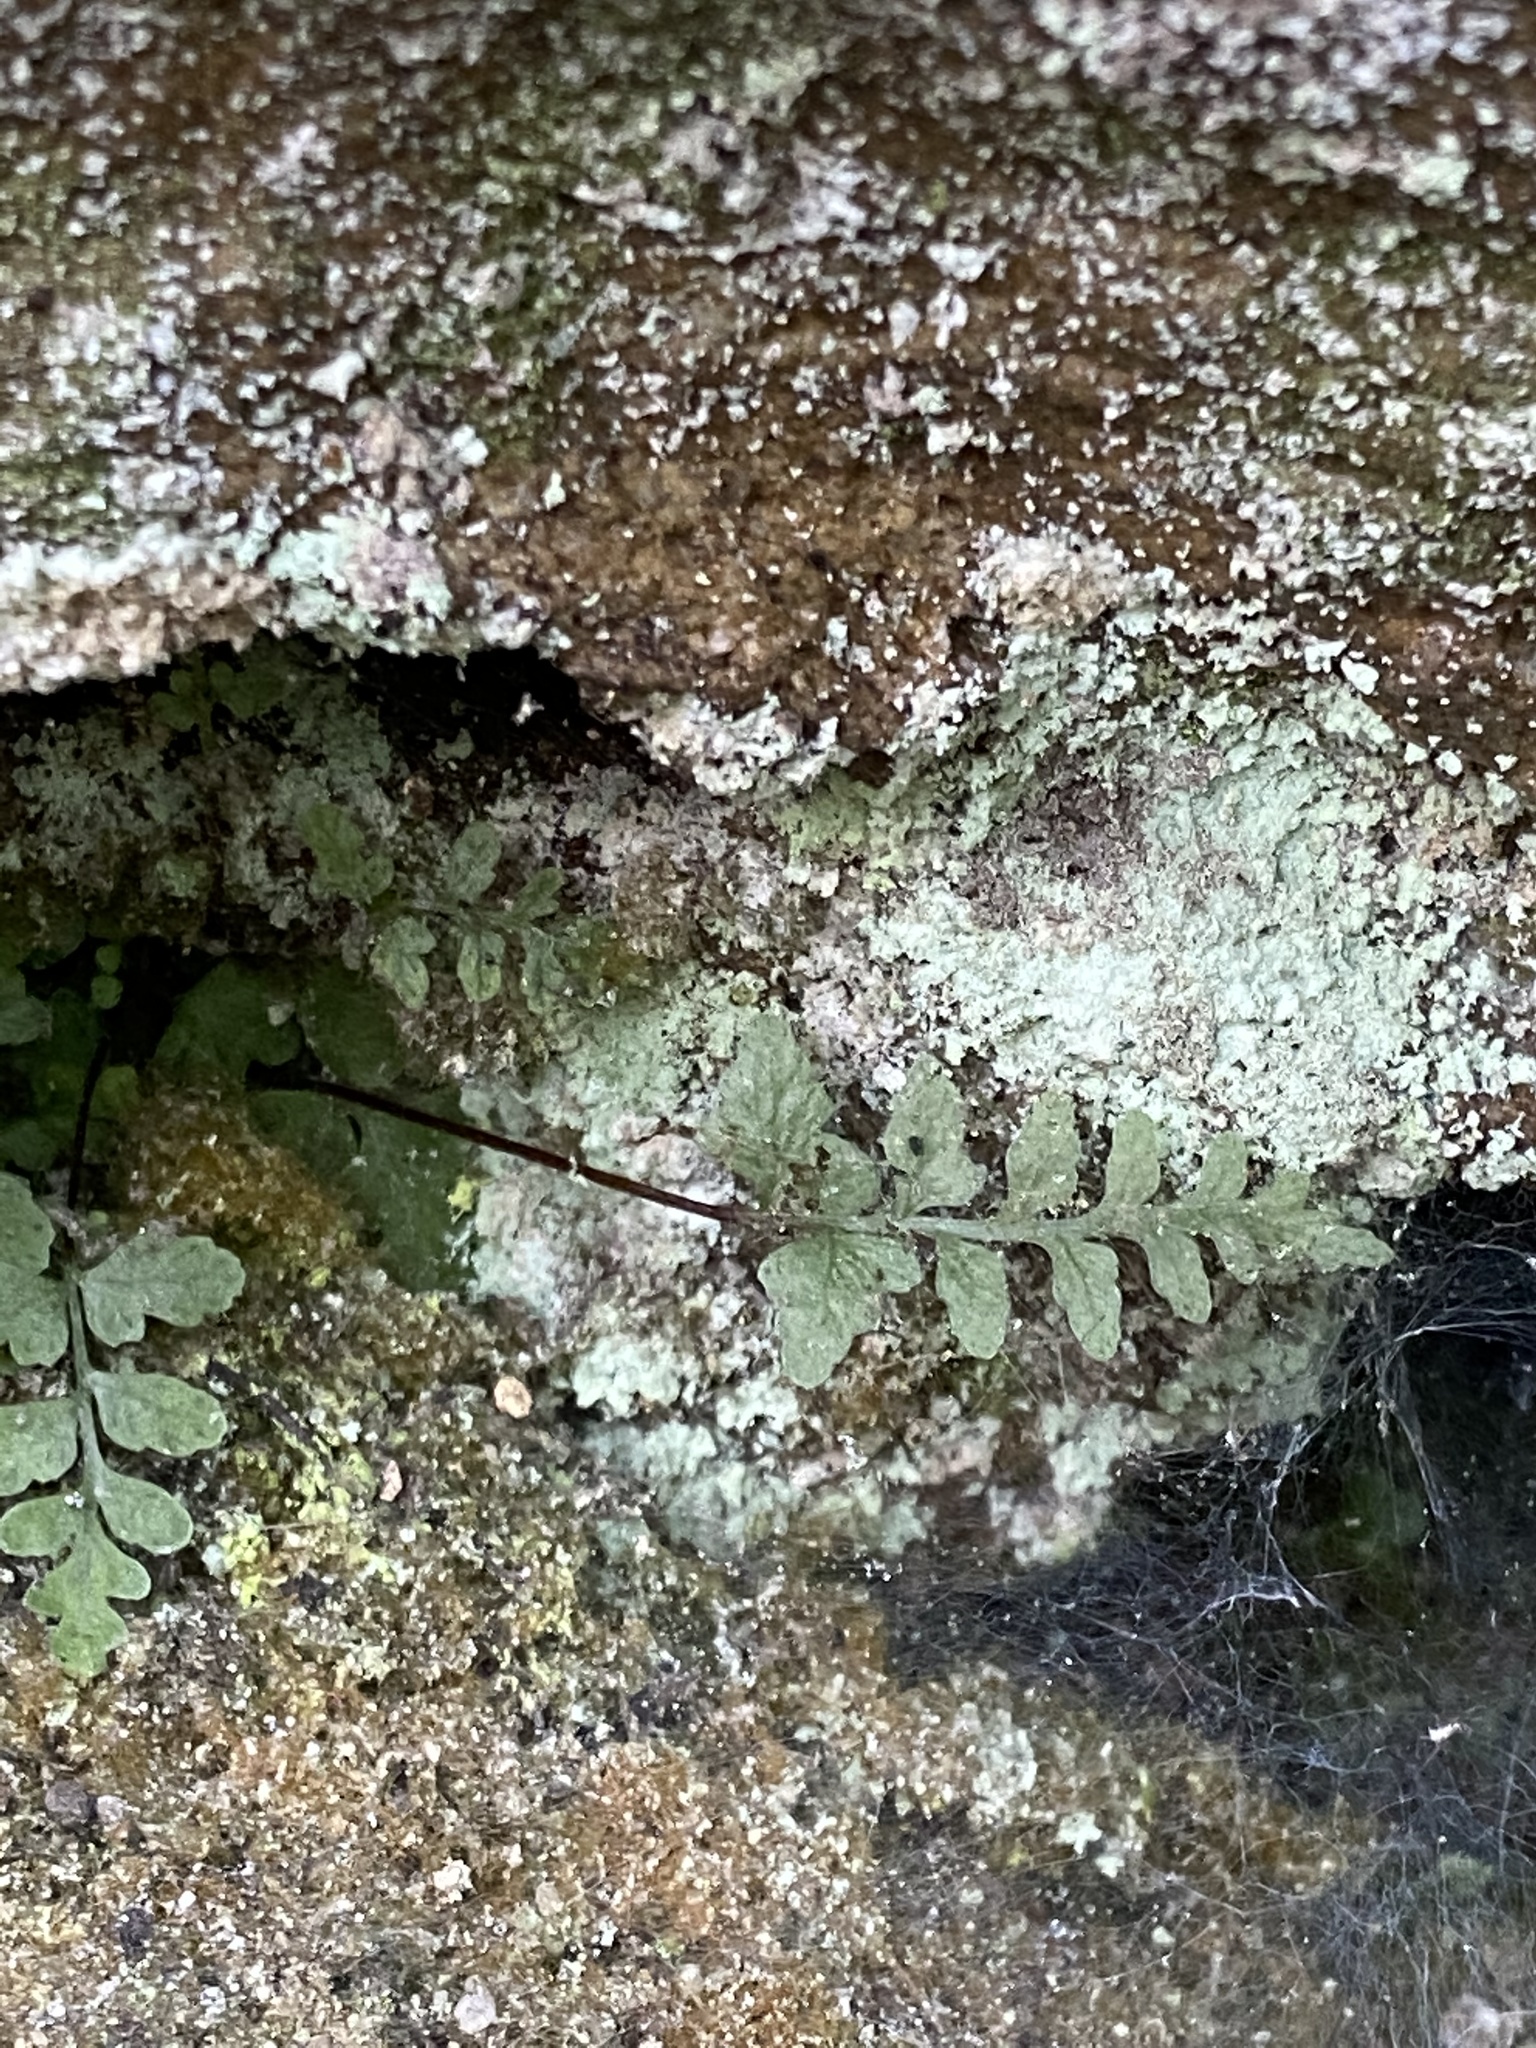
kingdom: Plantae
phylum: Tracheophyta
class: Polypodiopsida
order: Polypodiales
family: Aspleniaceae
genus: Asplenium
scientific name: Asplenium bradleyi
